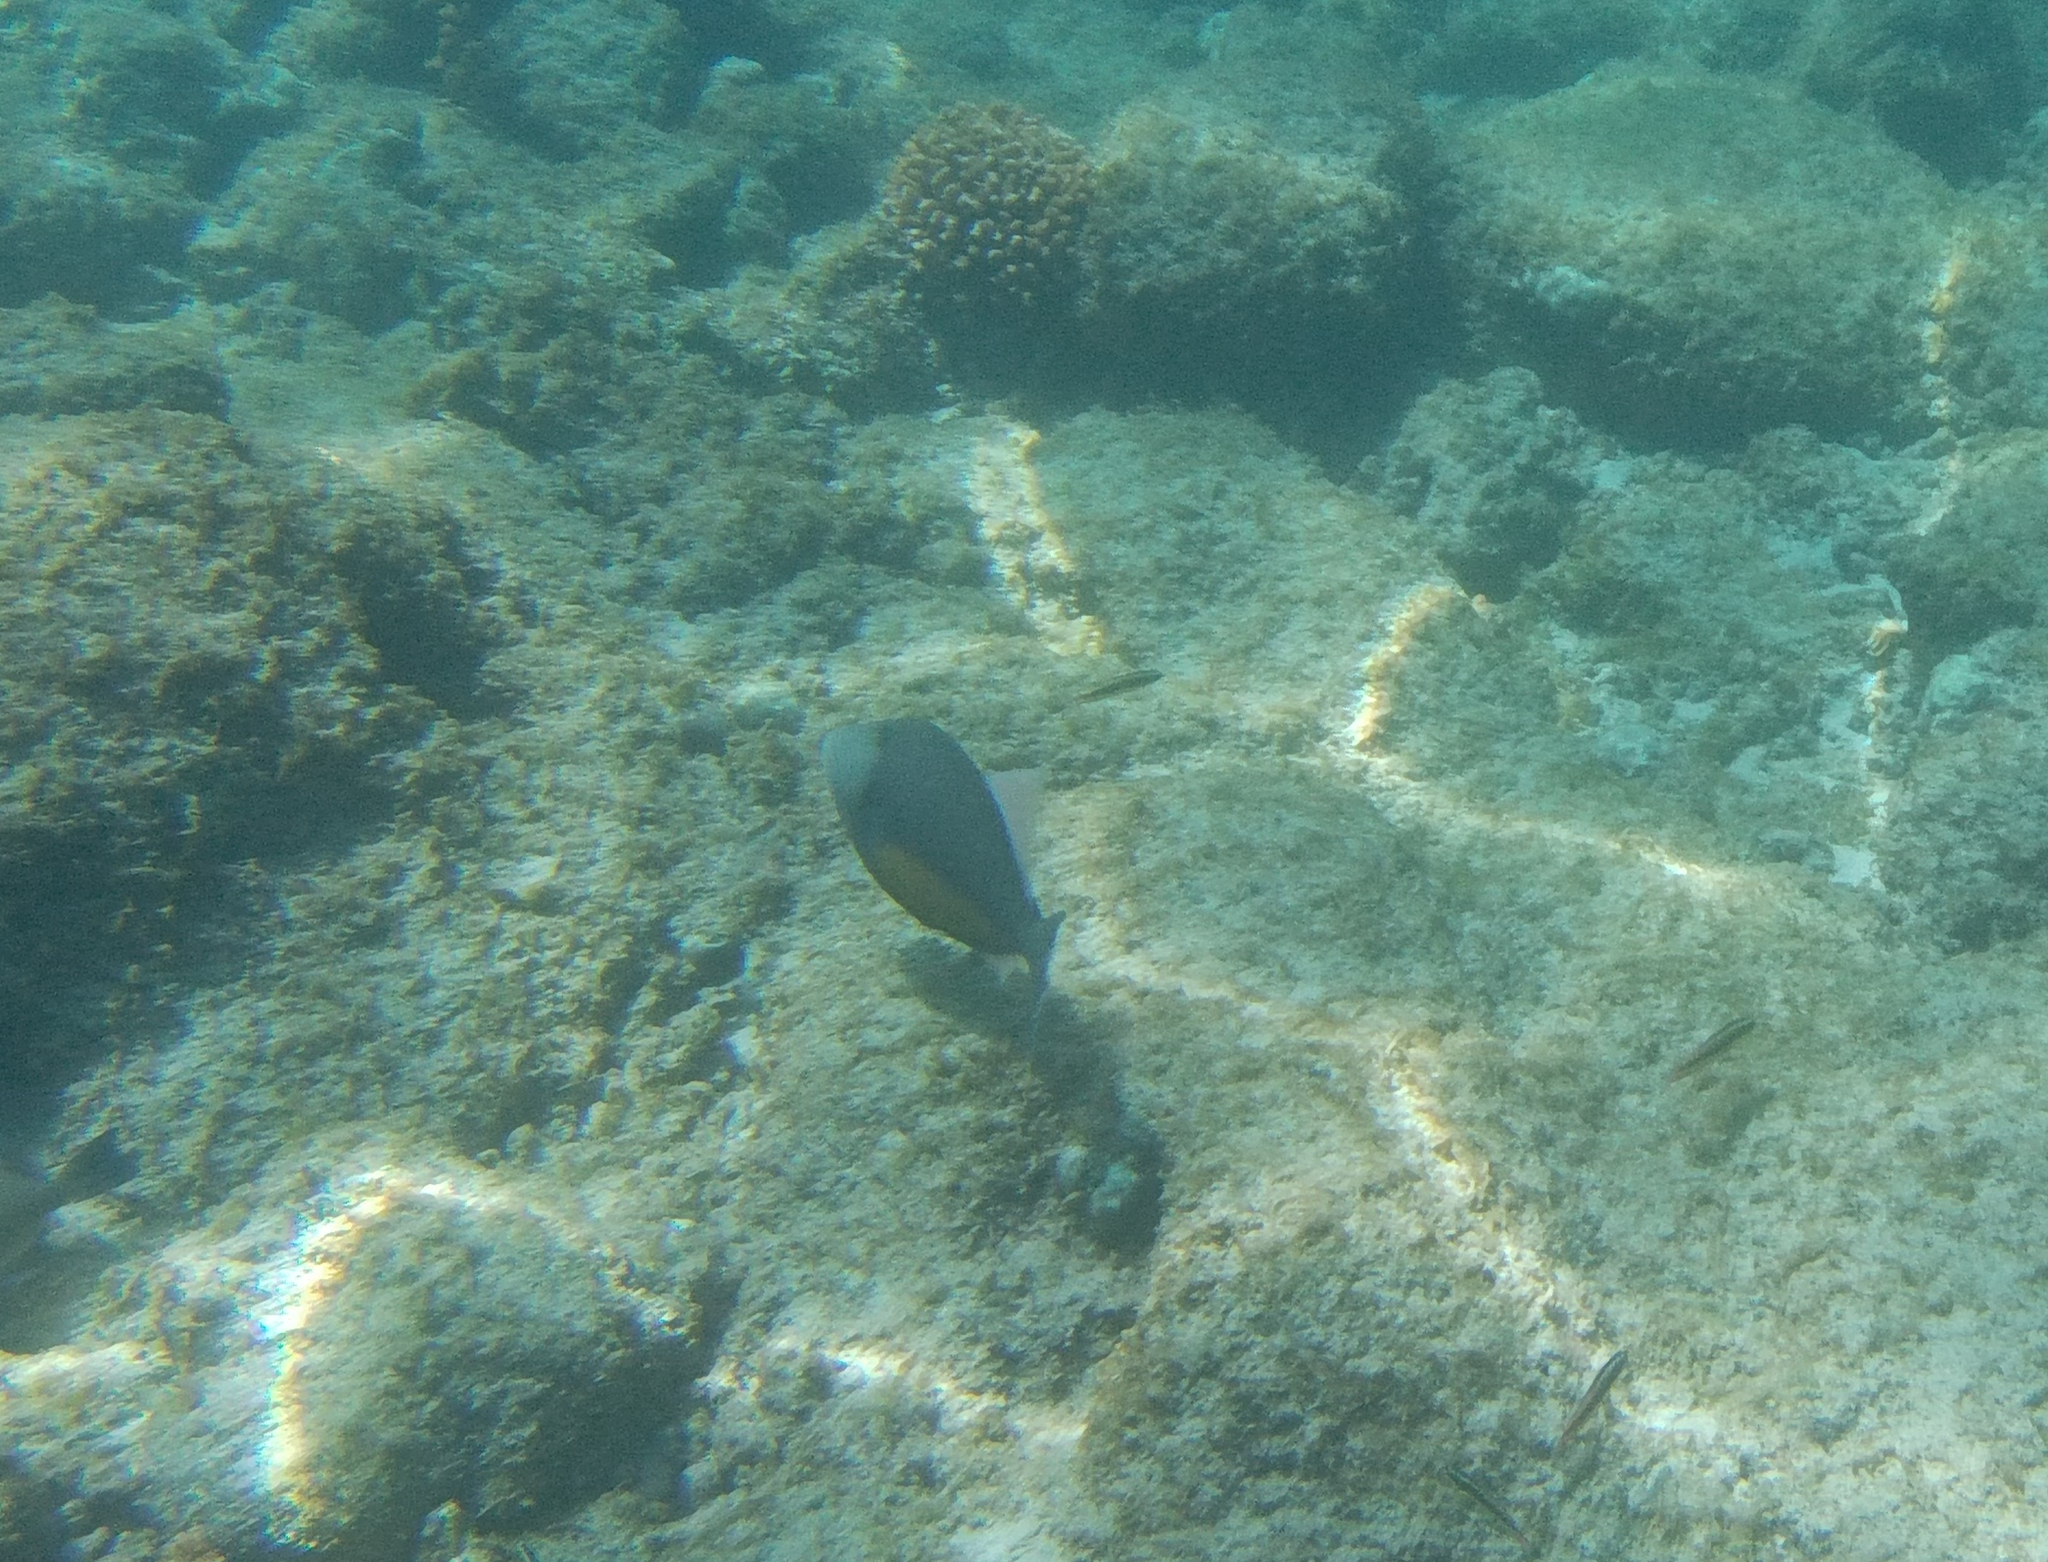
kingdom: Animalia
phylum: Chordata
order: Tetraodontiformes
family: Balistidae
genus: Sufflamen
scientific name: Sufflamen verres
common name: Orangeside triggerfish
